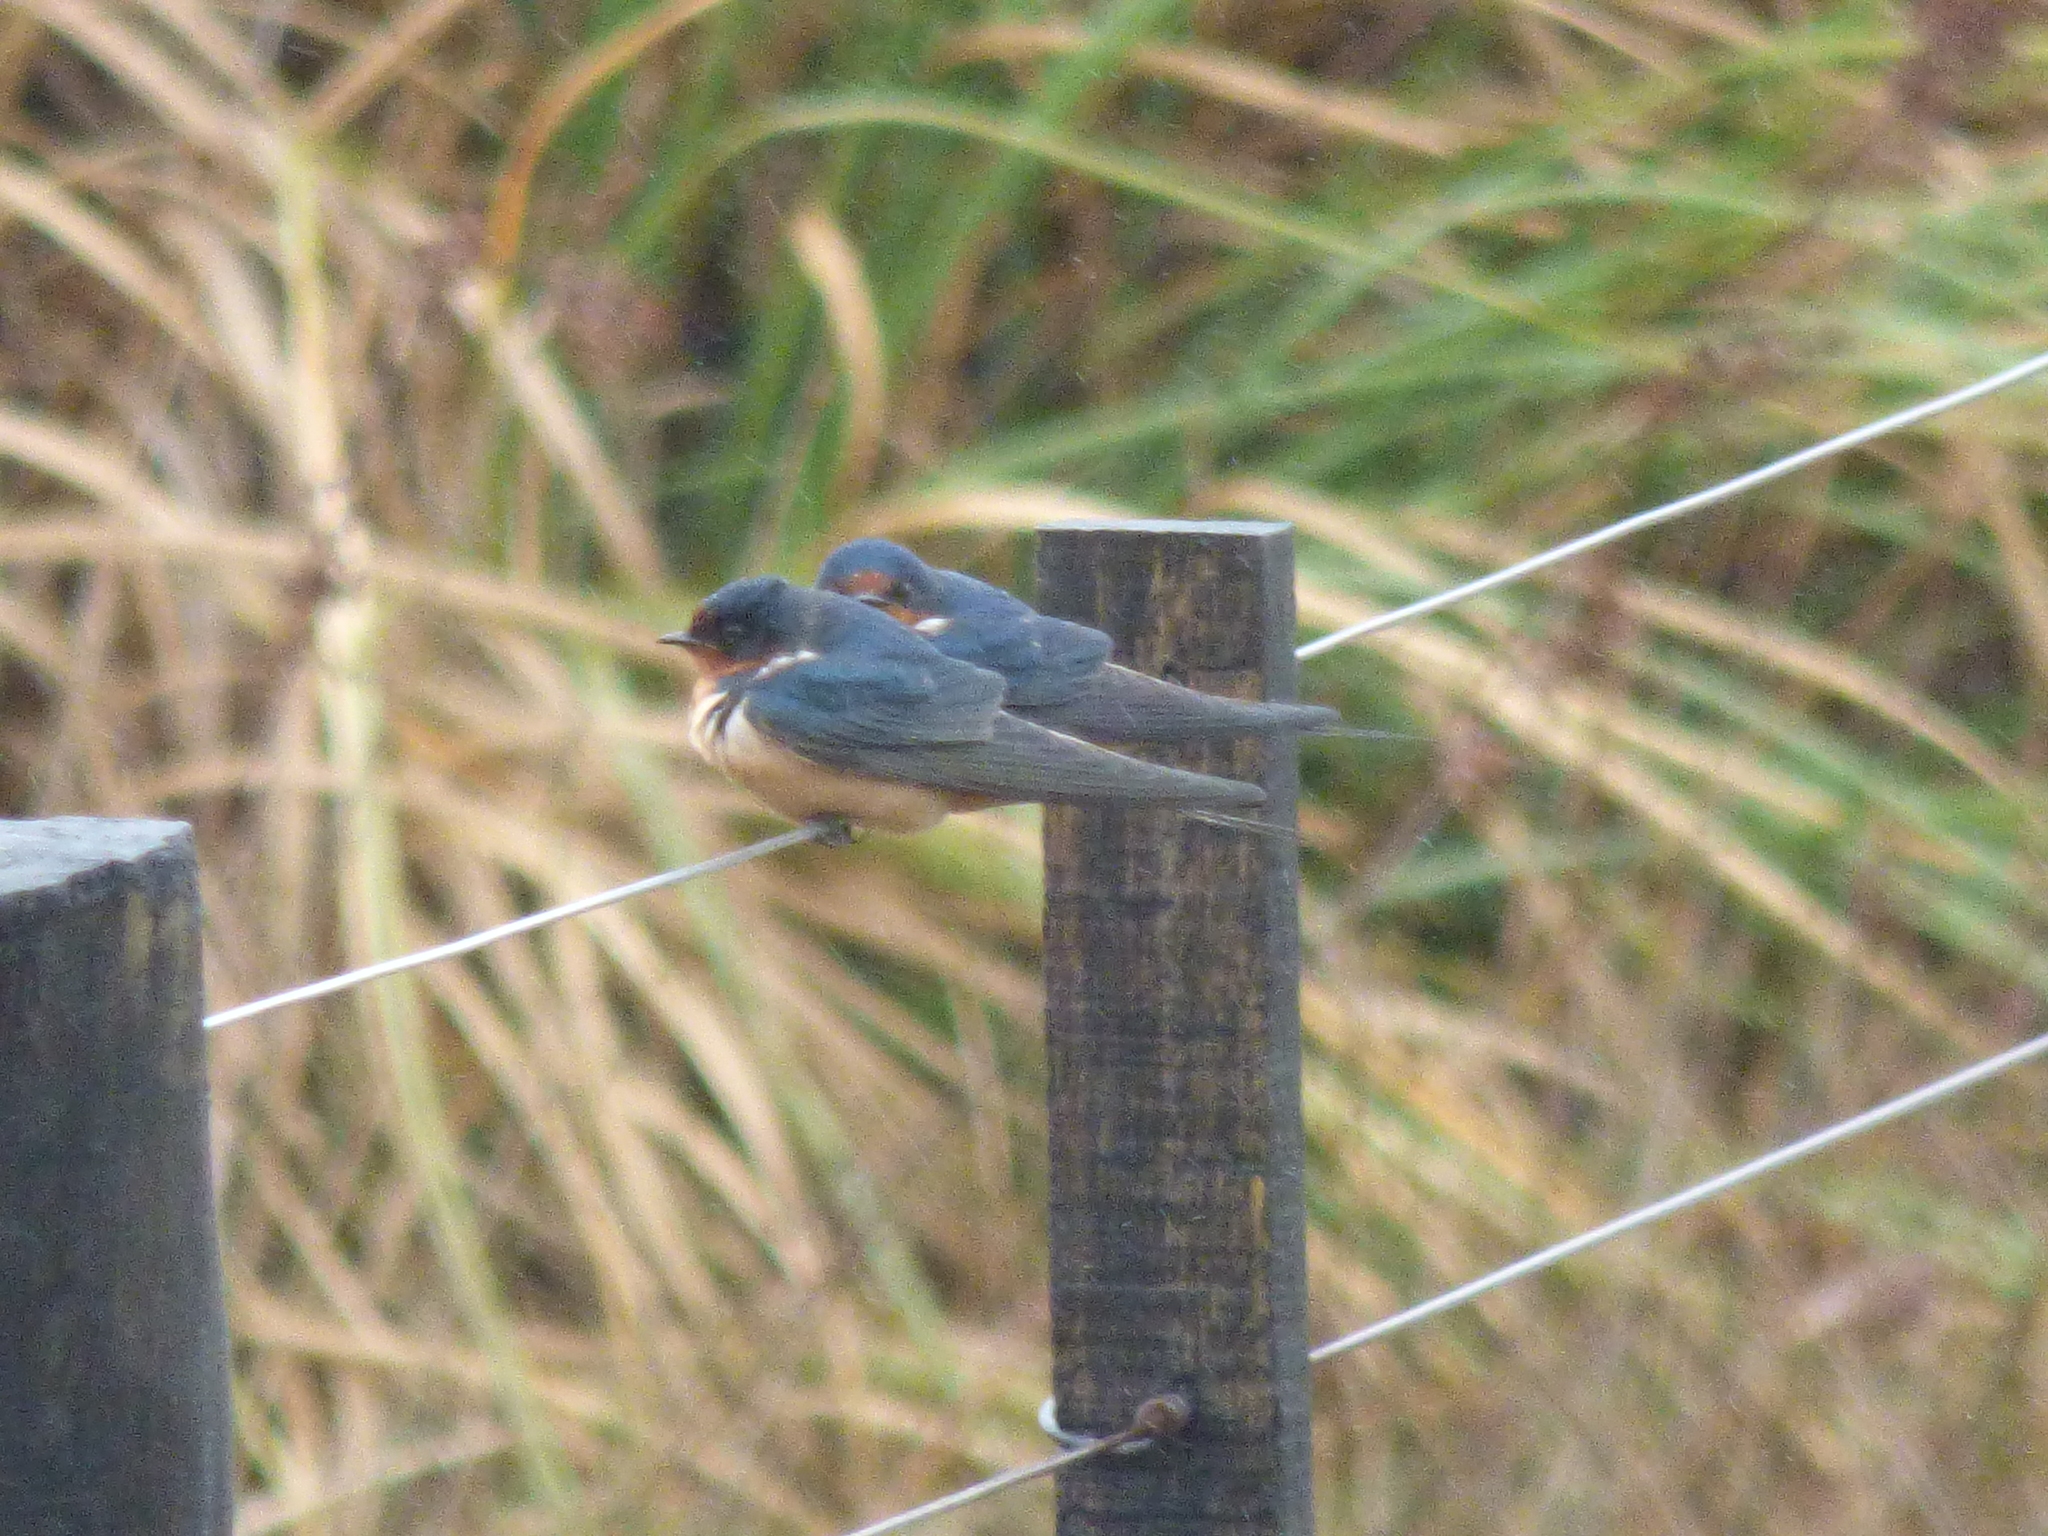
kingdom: Animalia
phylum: Chordata
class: Aves
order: Passeriformes
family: Hirundinidae
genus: Hirundo
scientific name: Hirundo rustica
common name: Barn swallow
